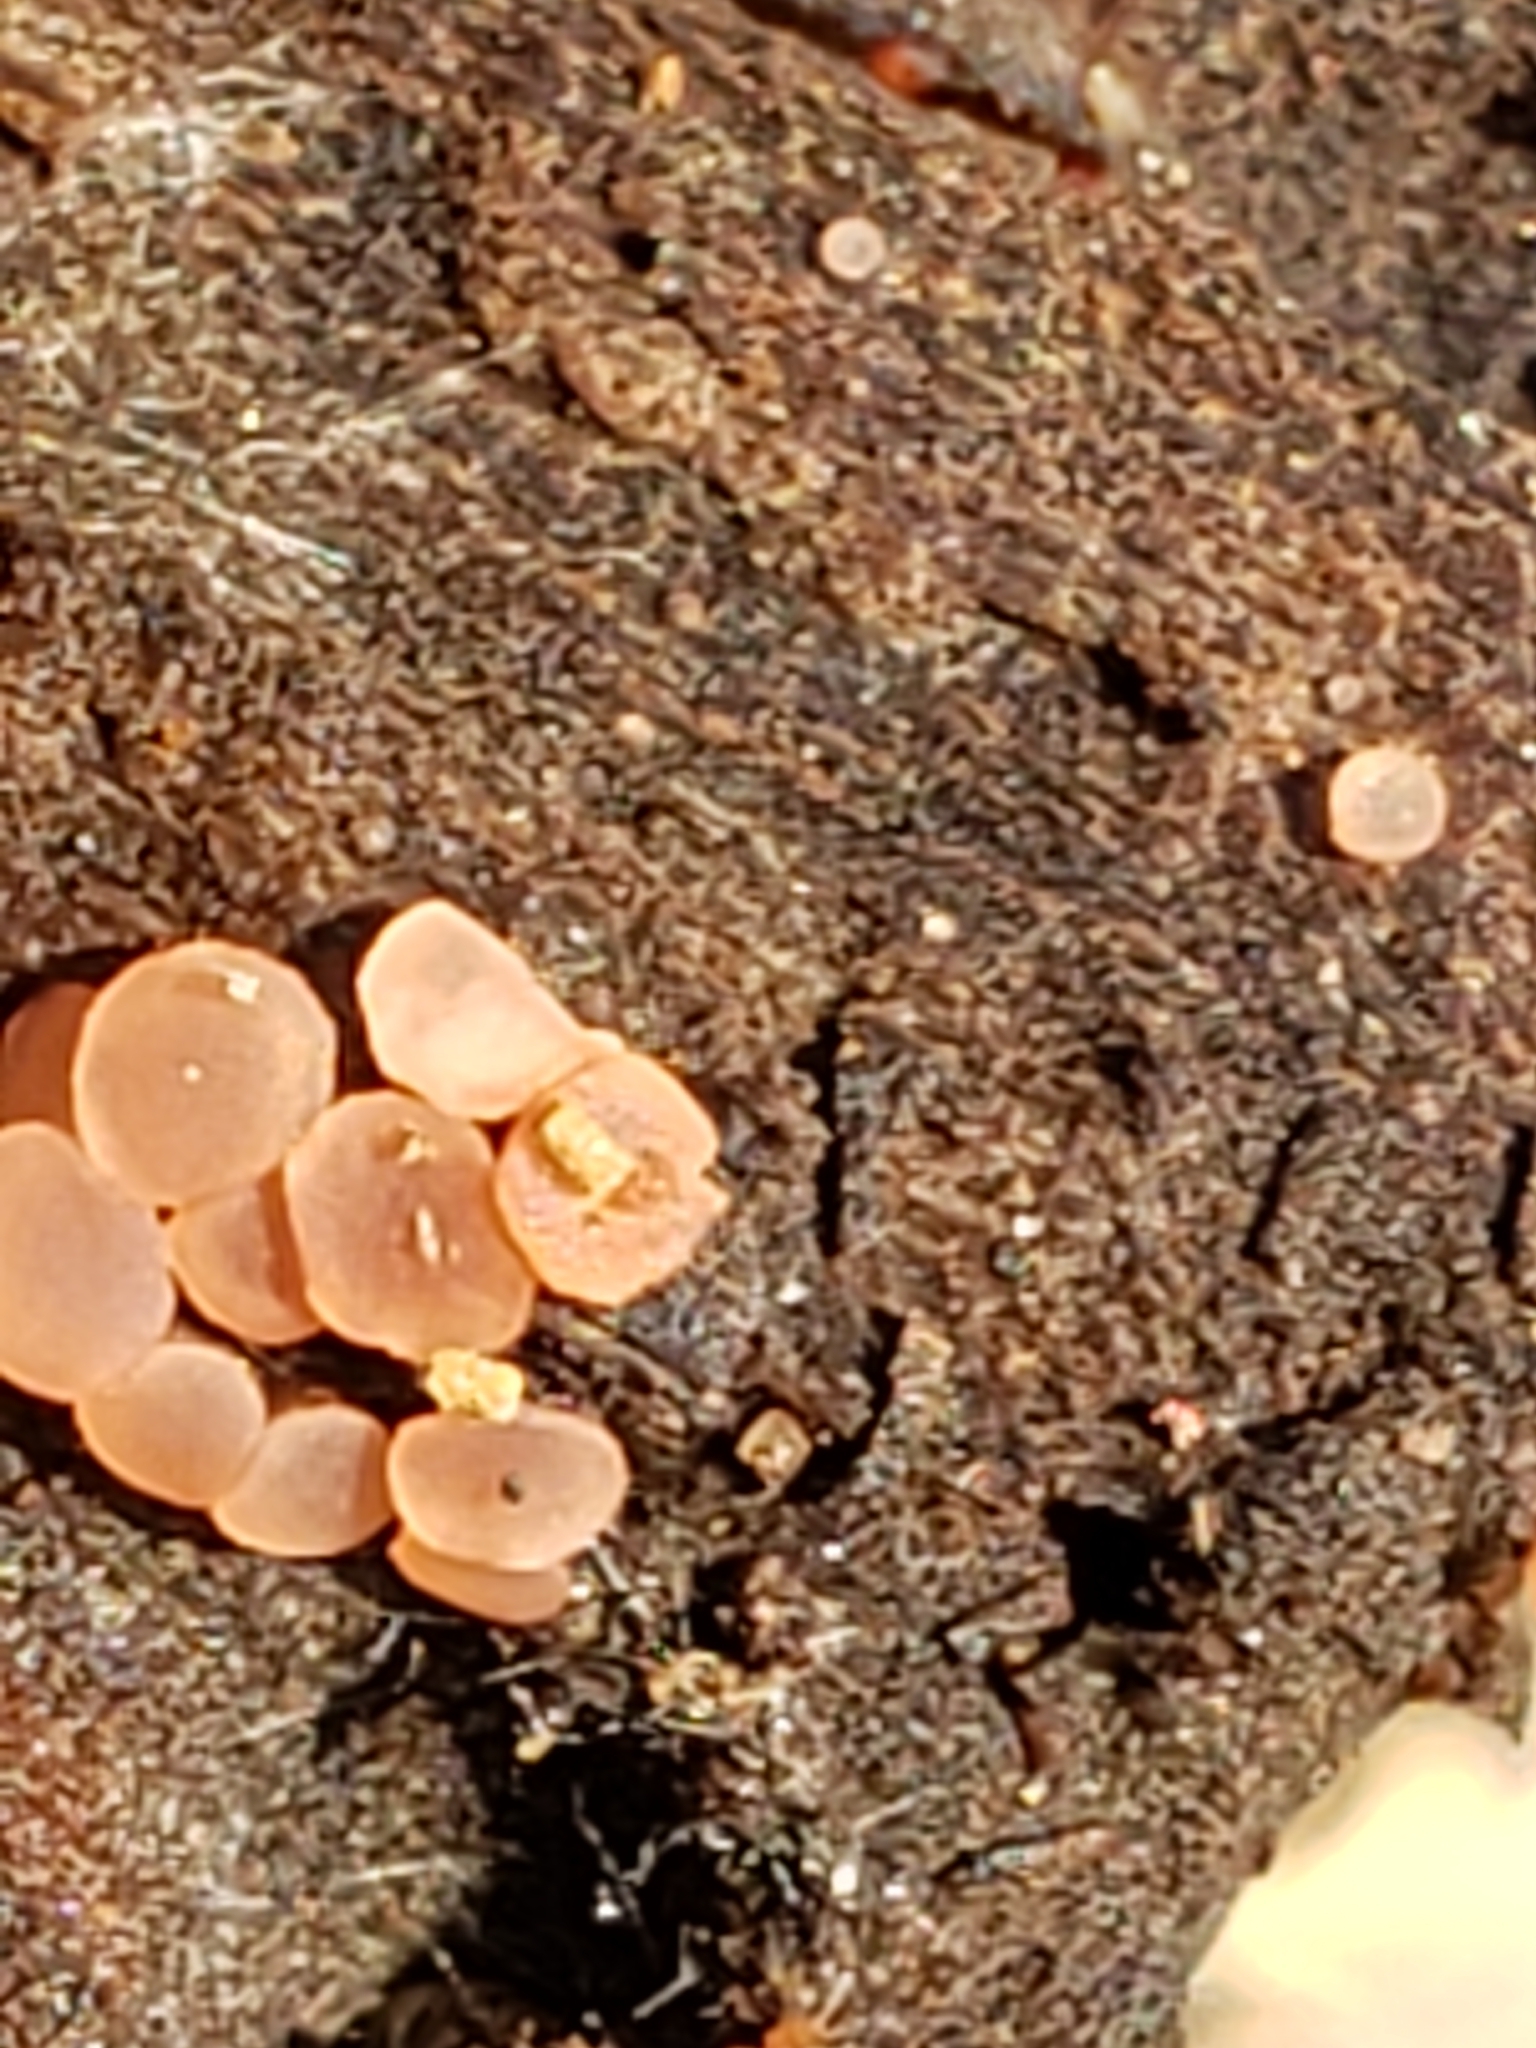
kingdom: Fungi
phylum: Ascomycota
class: Orbiliomycetes
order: Orbiliales
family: Orbiliaceae
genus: Orbilia
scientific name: Orbilia xanthostigma
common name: Common glasscup
